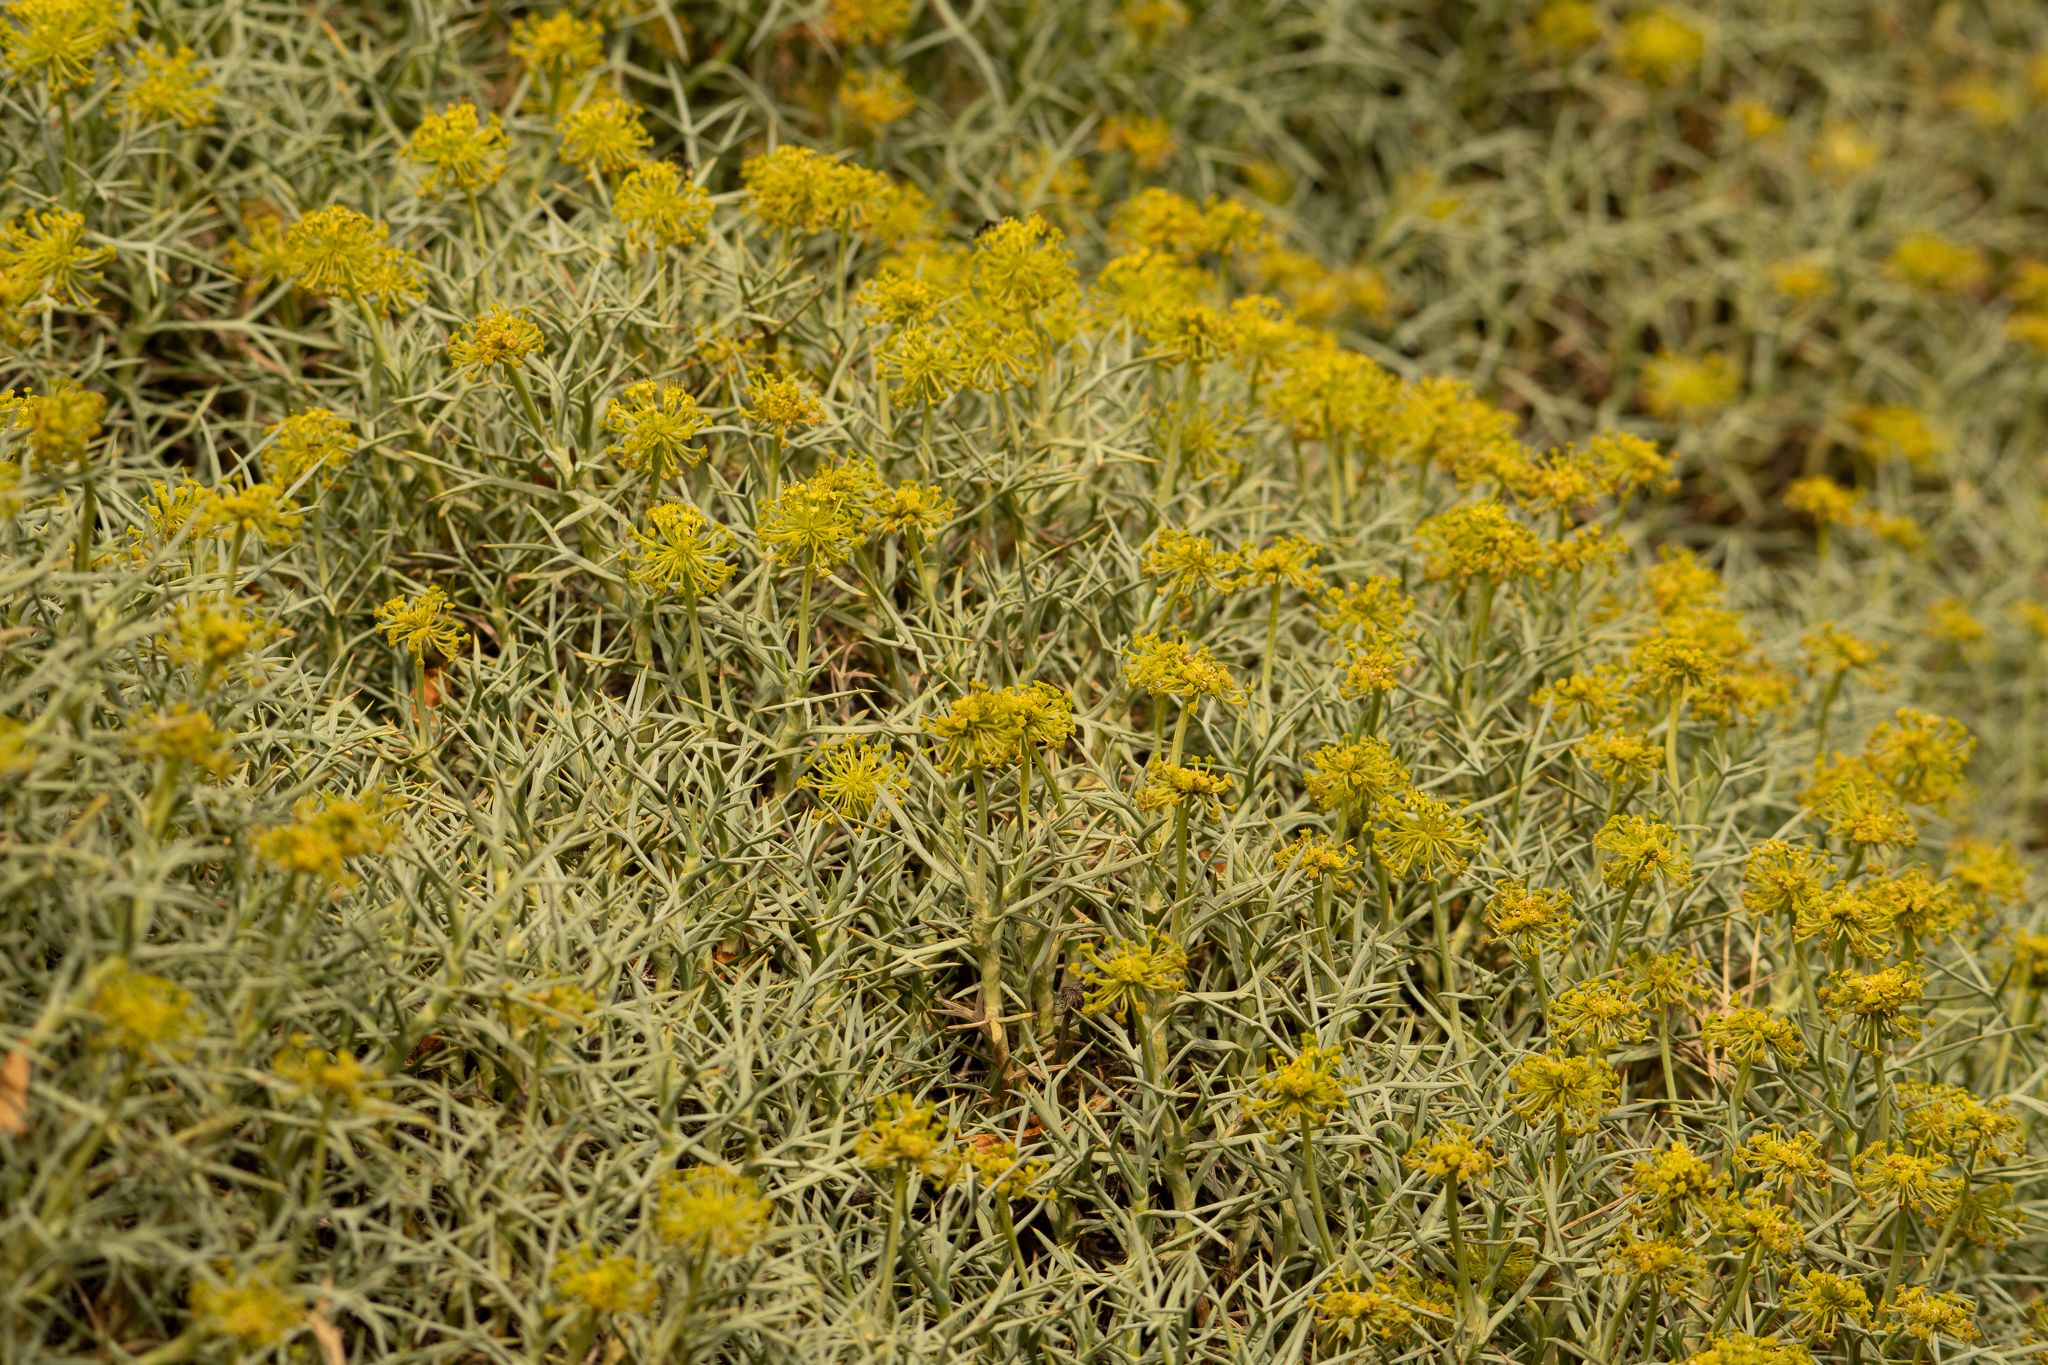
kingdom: Plantae
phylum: Tracheophyta
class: Magnoliopsida
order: Apiales
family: Apiaceae
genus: Azorella
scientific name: Azorella prolifera
